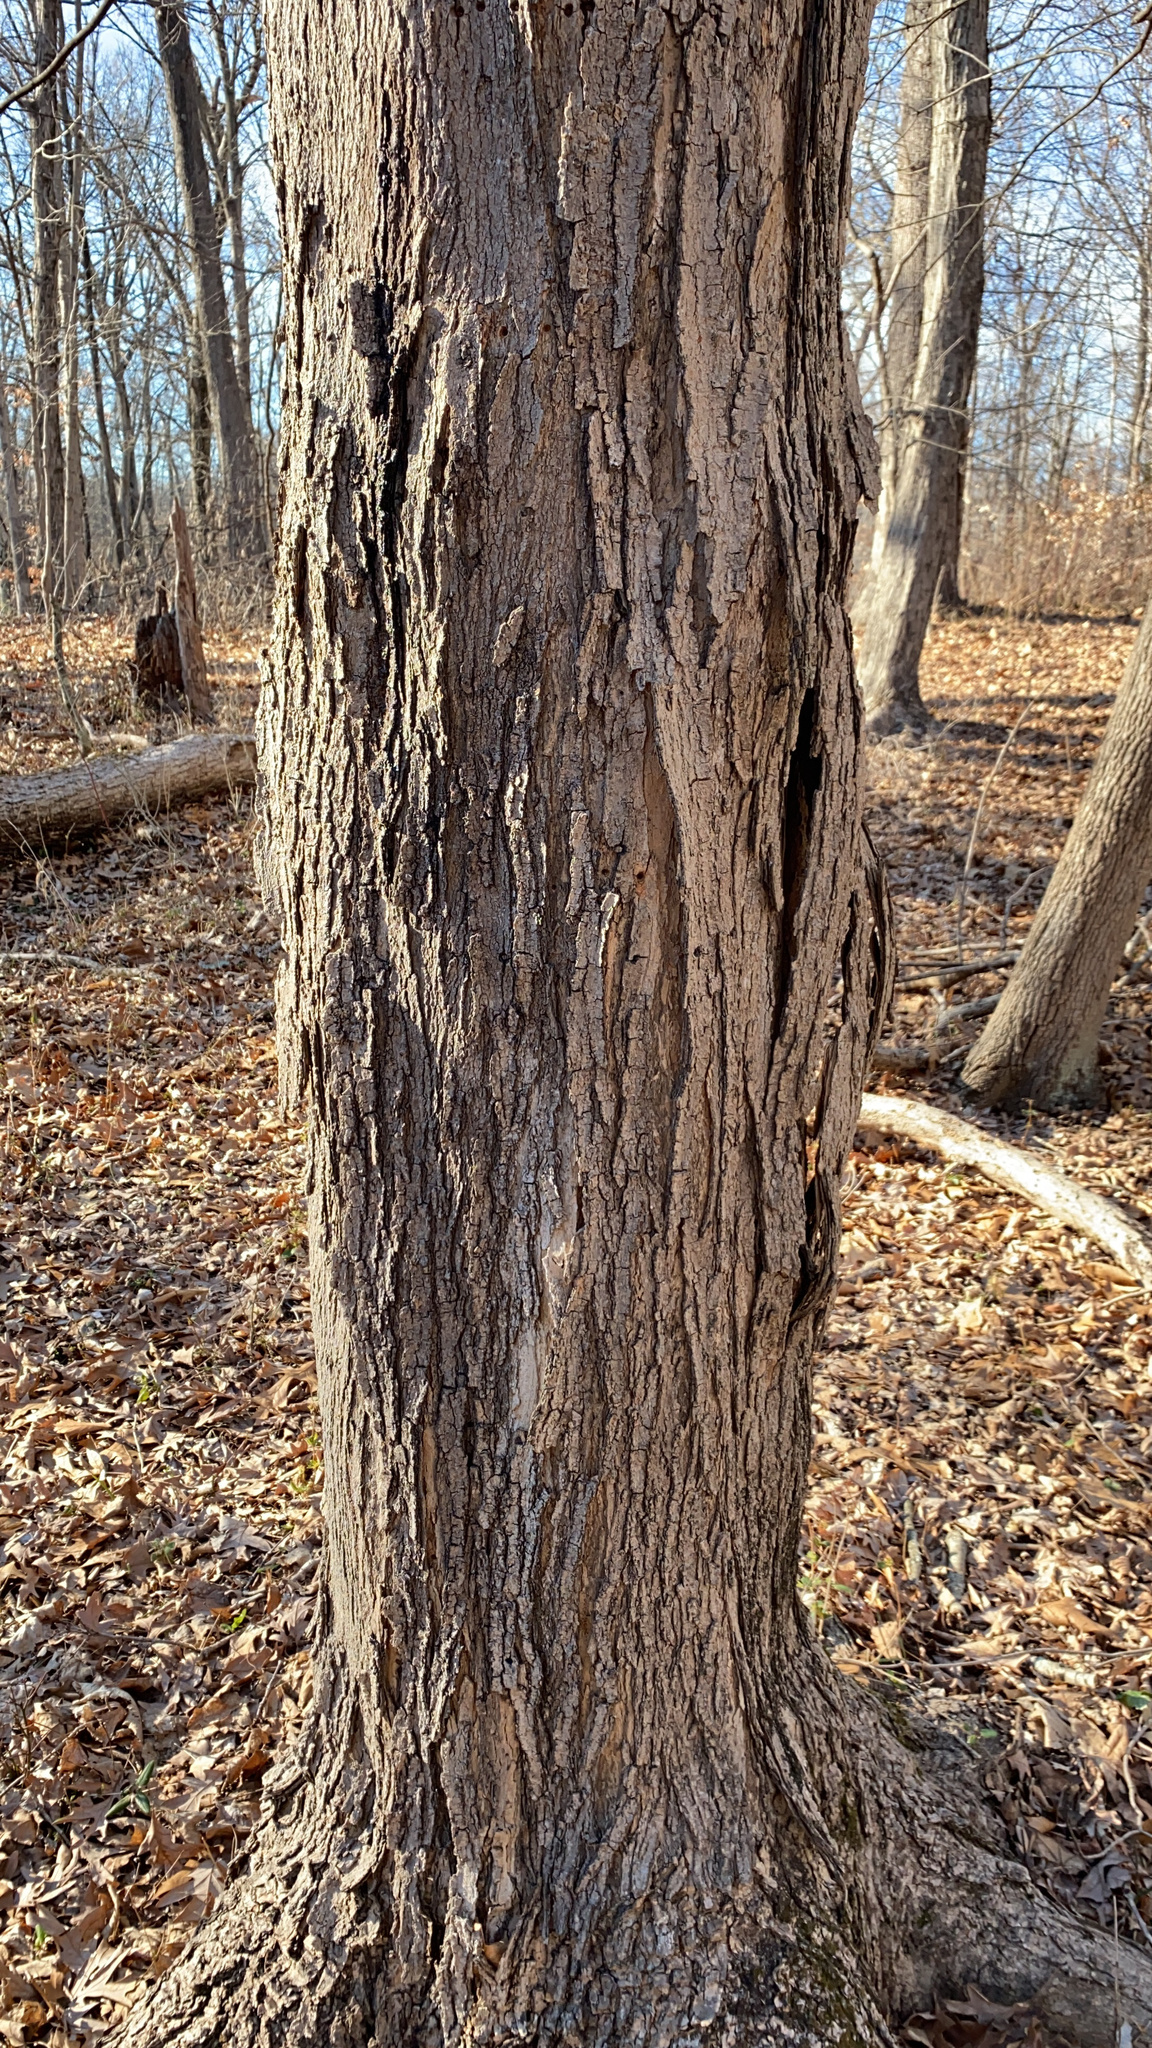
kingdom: Plantae
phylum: Tracheophyta
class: Magnoliopsida
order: Sapindales
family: Sapindaceae
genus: Acer
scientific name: Acer saccharum
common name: Sugar maple
